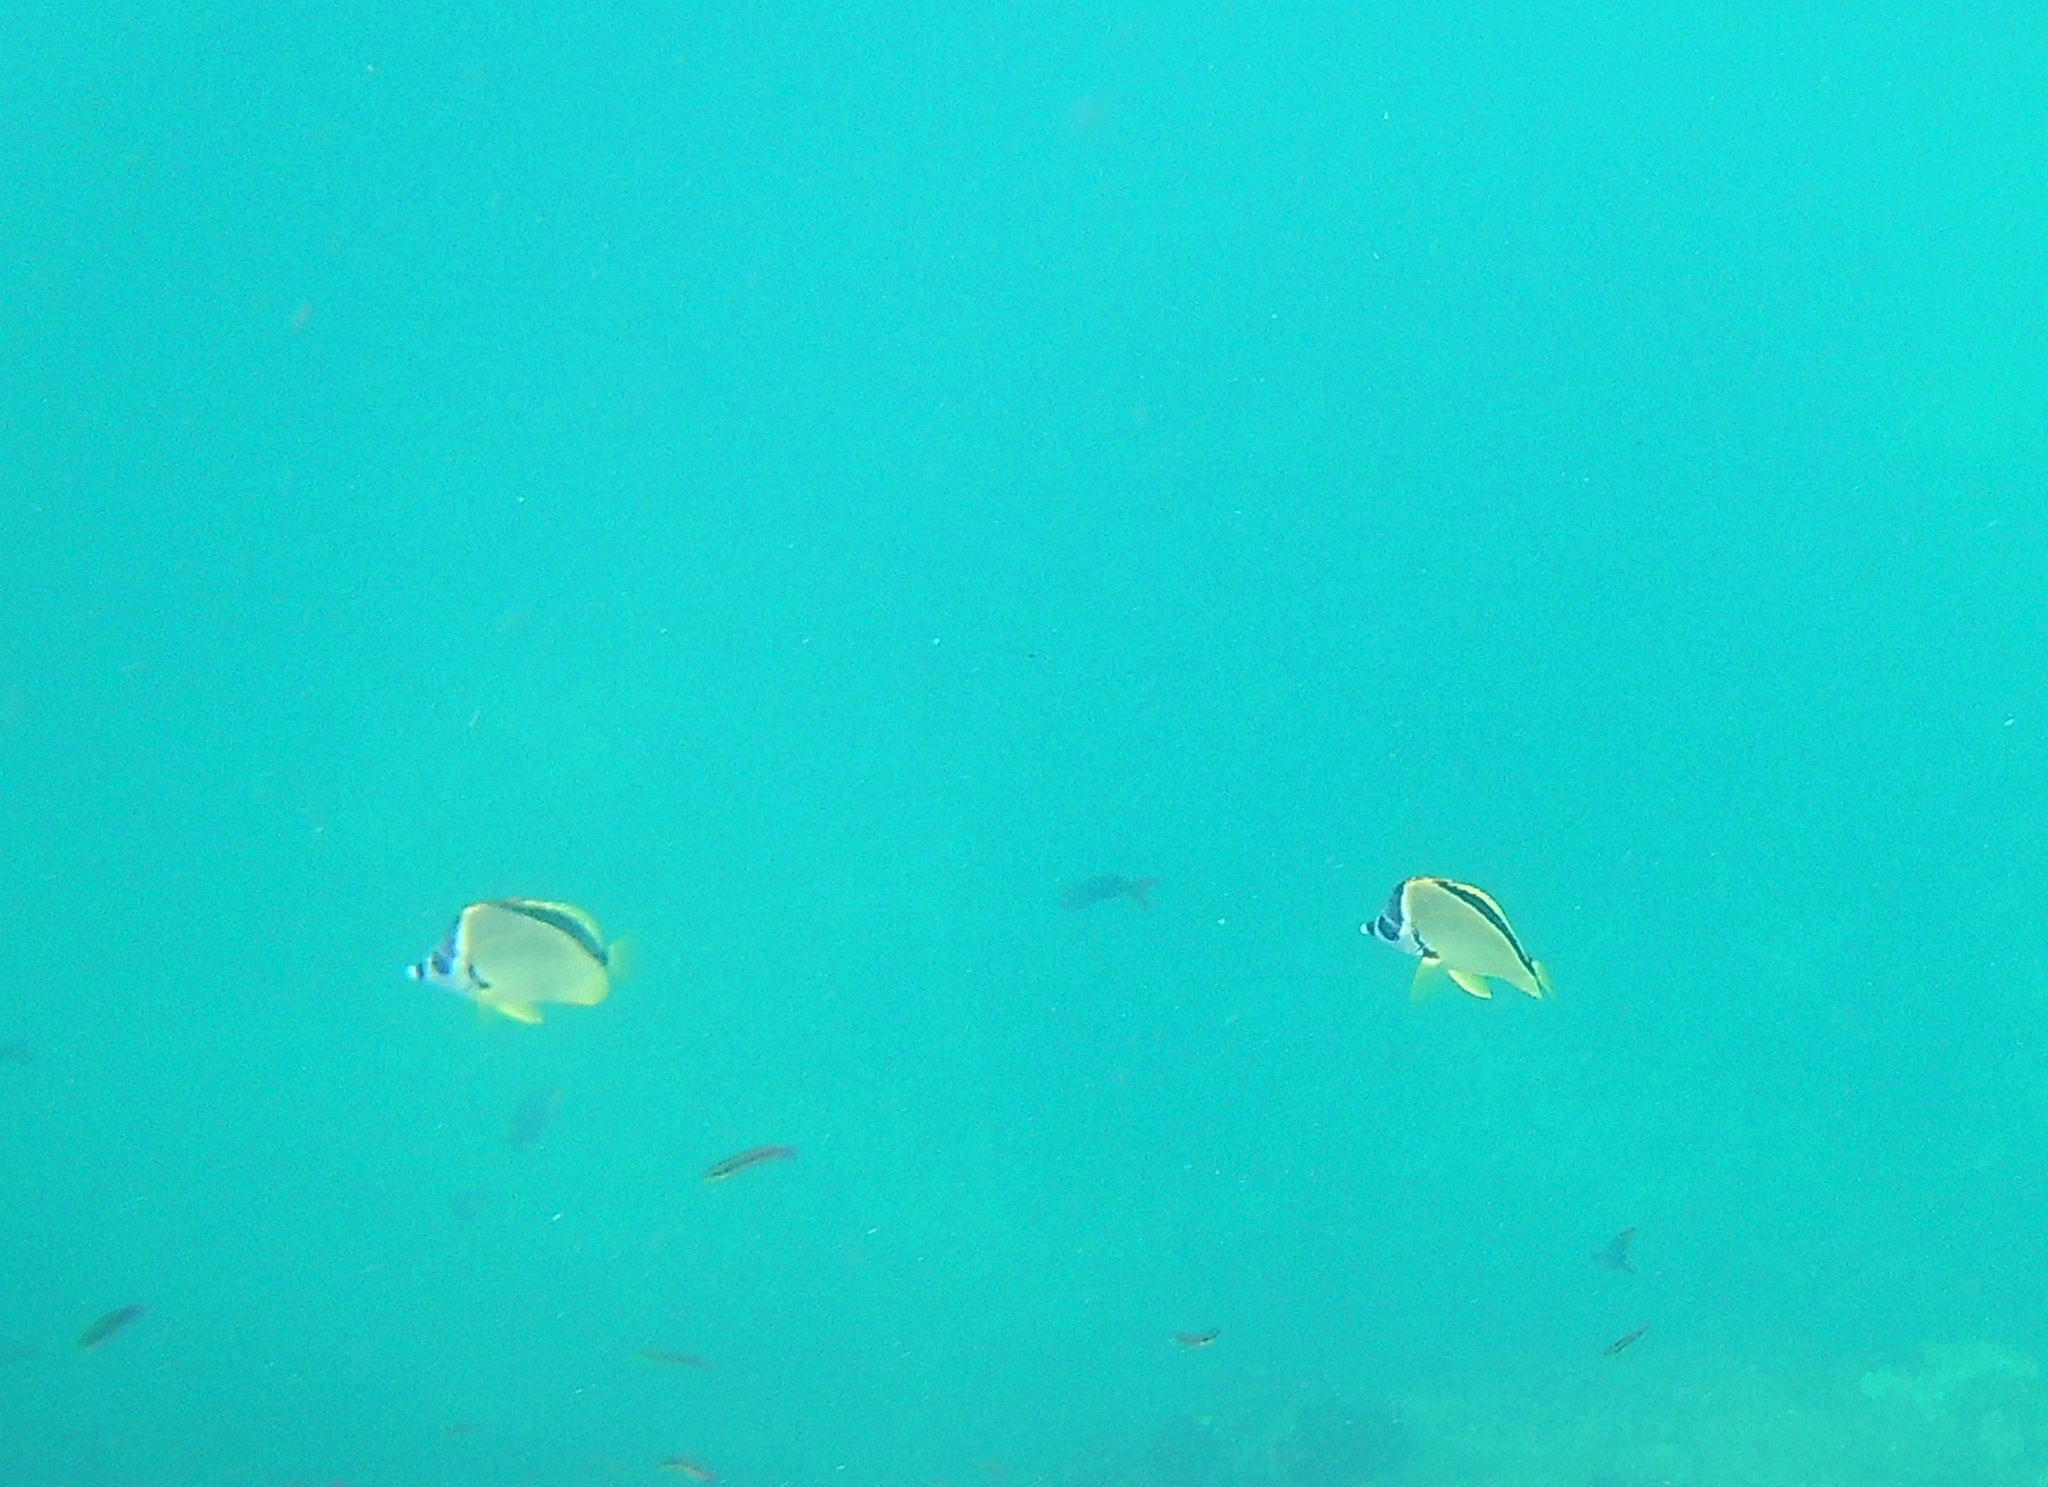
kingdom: Animalia
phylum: Chordata
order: Perciformes
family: Chaetodontidae
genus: Johnrandallia
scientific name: Johnrandallia nigrirostris
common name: Barberfish
